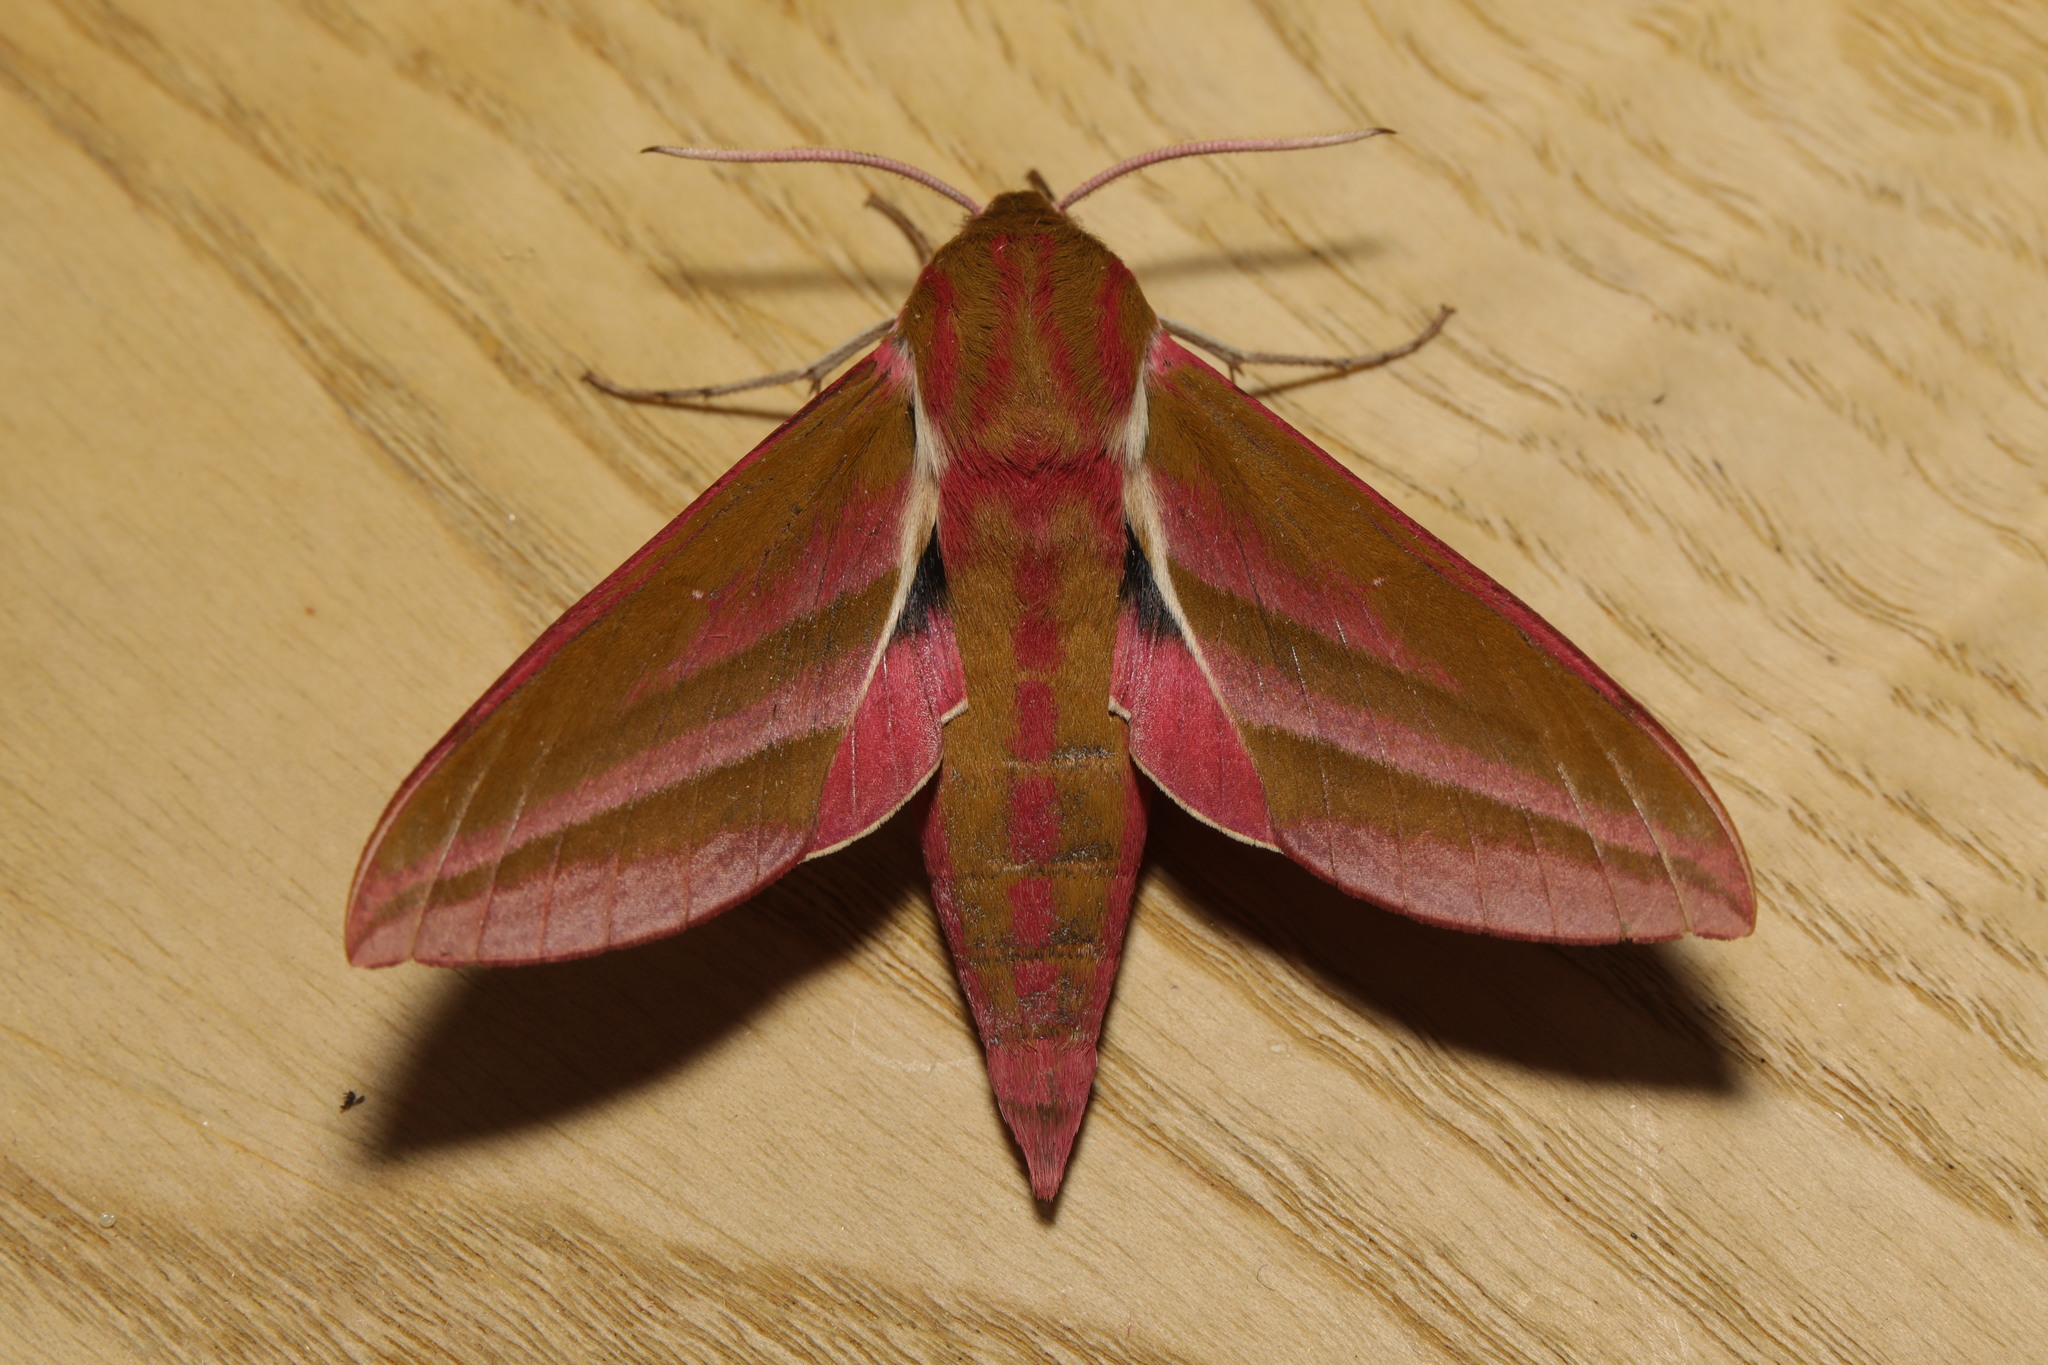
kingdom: Animalia
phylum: Arthropoda
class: Insecta
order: Lepidoptera
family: Sphingidae
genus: Deilephila
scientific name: Deilephila elpenor
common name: Elephant hawk-moth
